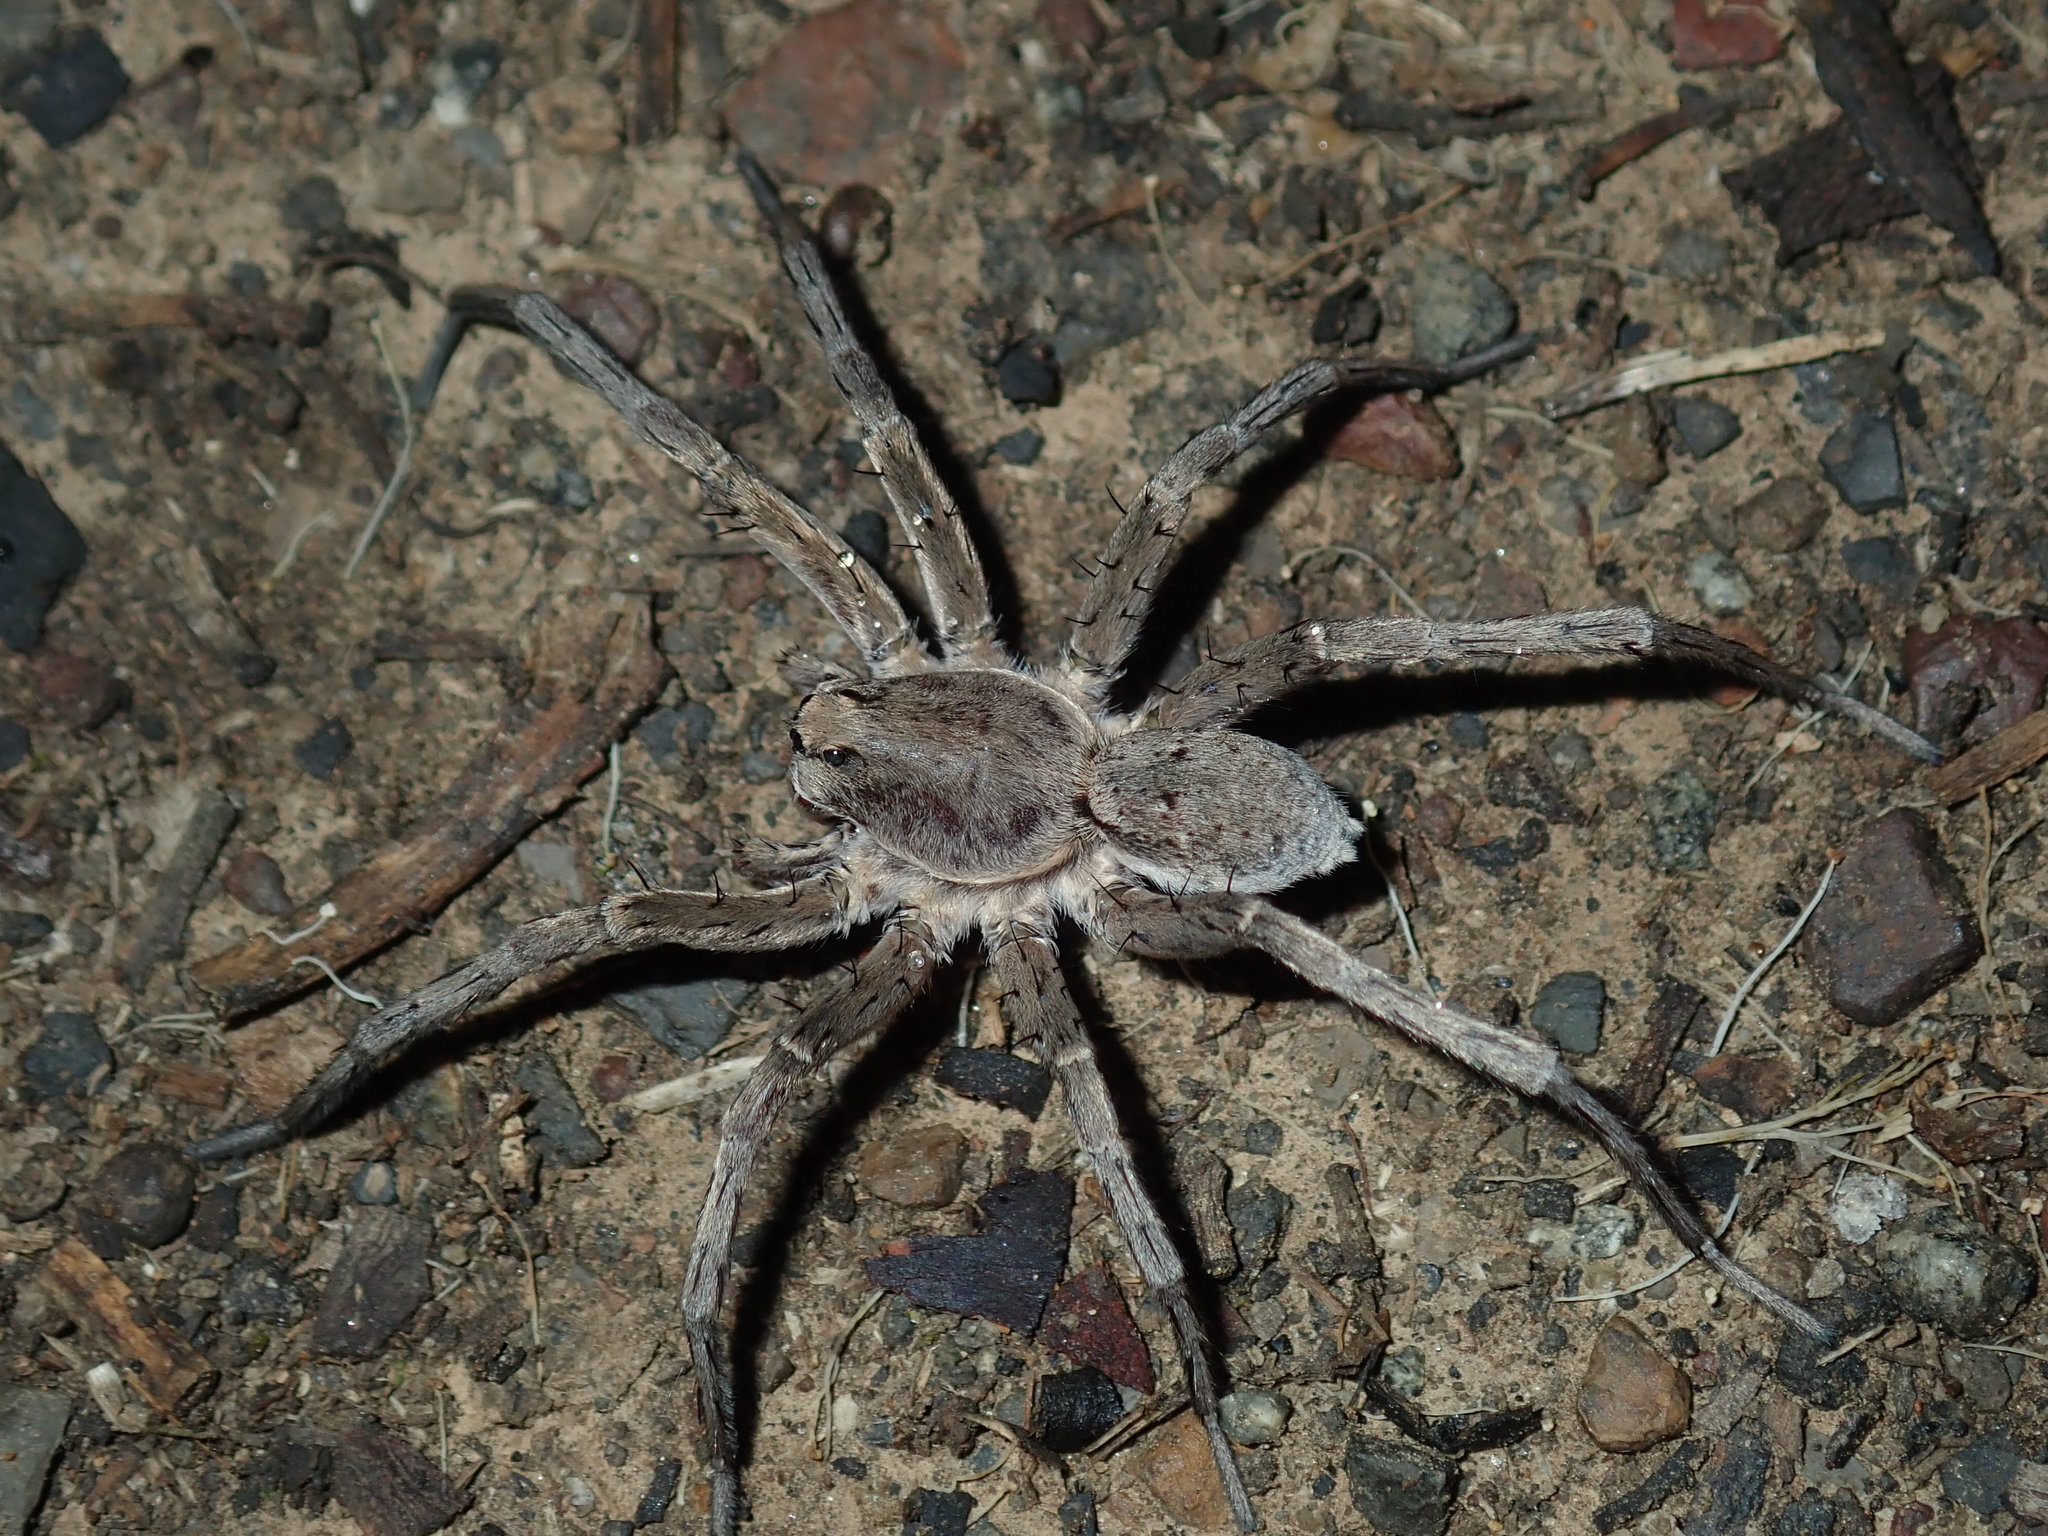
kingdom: Animalia
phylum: Arthropoda
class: Arachnida
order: Araneae
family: Lycosidae
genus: Portacosa
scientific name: Portacosa cinerea
